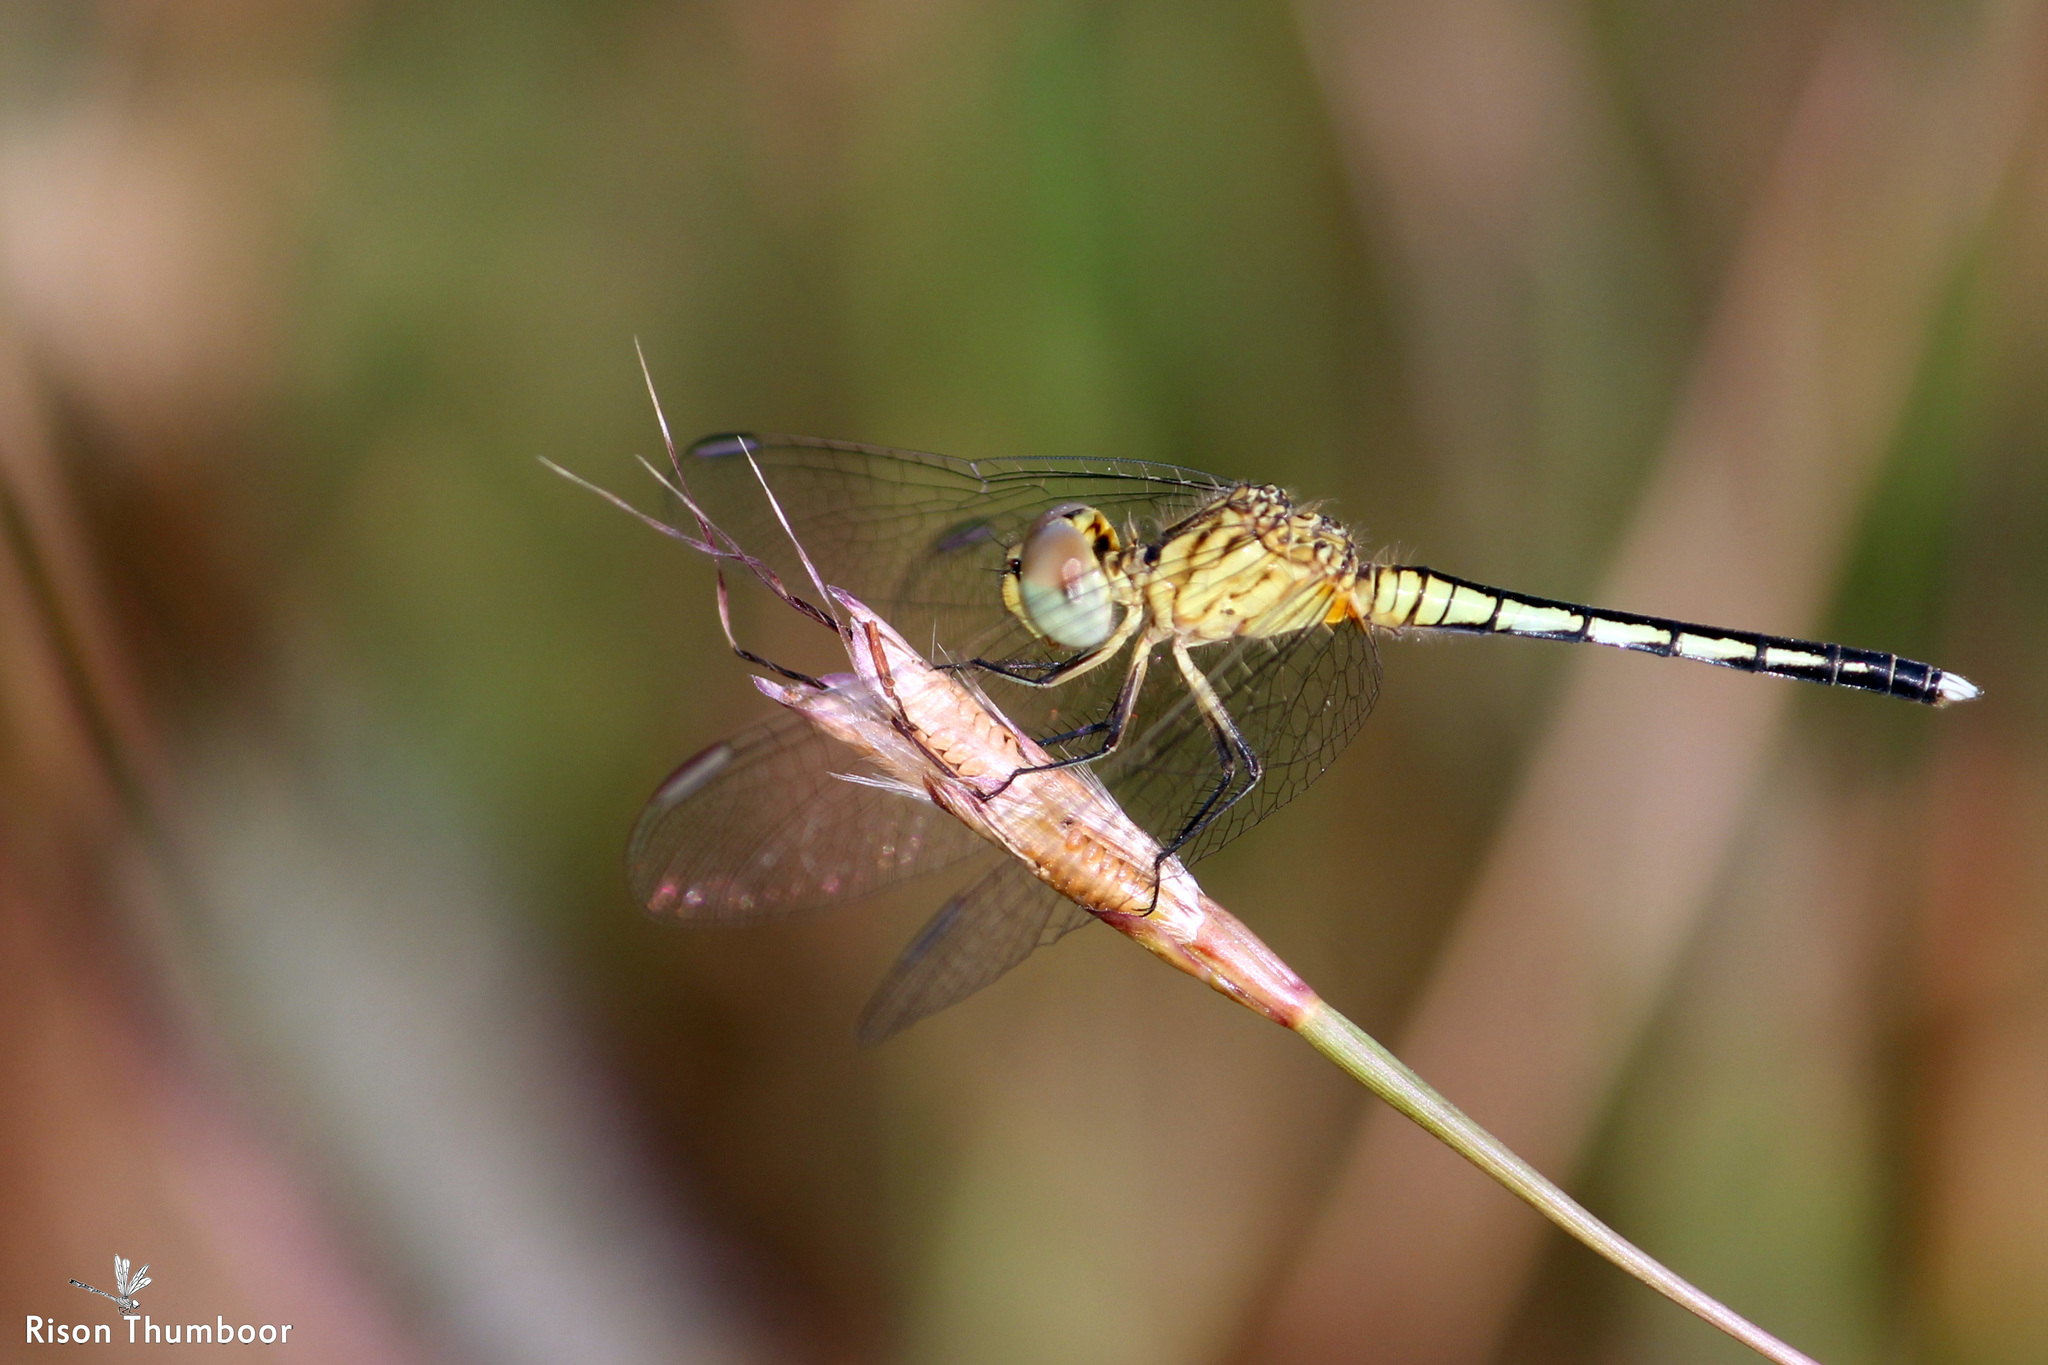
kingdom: Animalia
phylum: Arthropoda
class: Insecta
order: Odonata
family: Libellulidae
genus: Diplacodes
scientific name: Diplacodes trivialis
